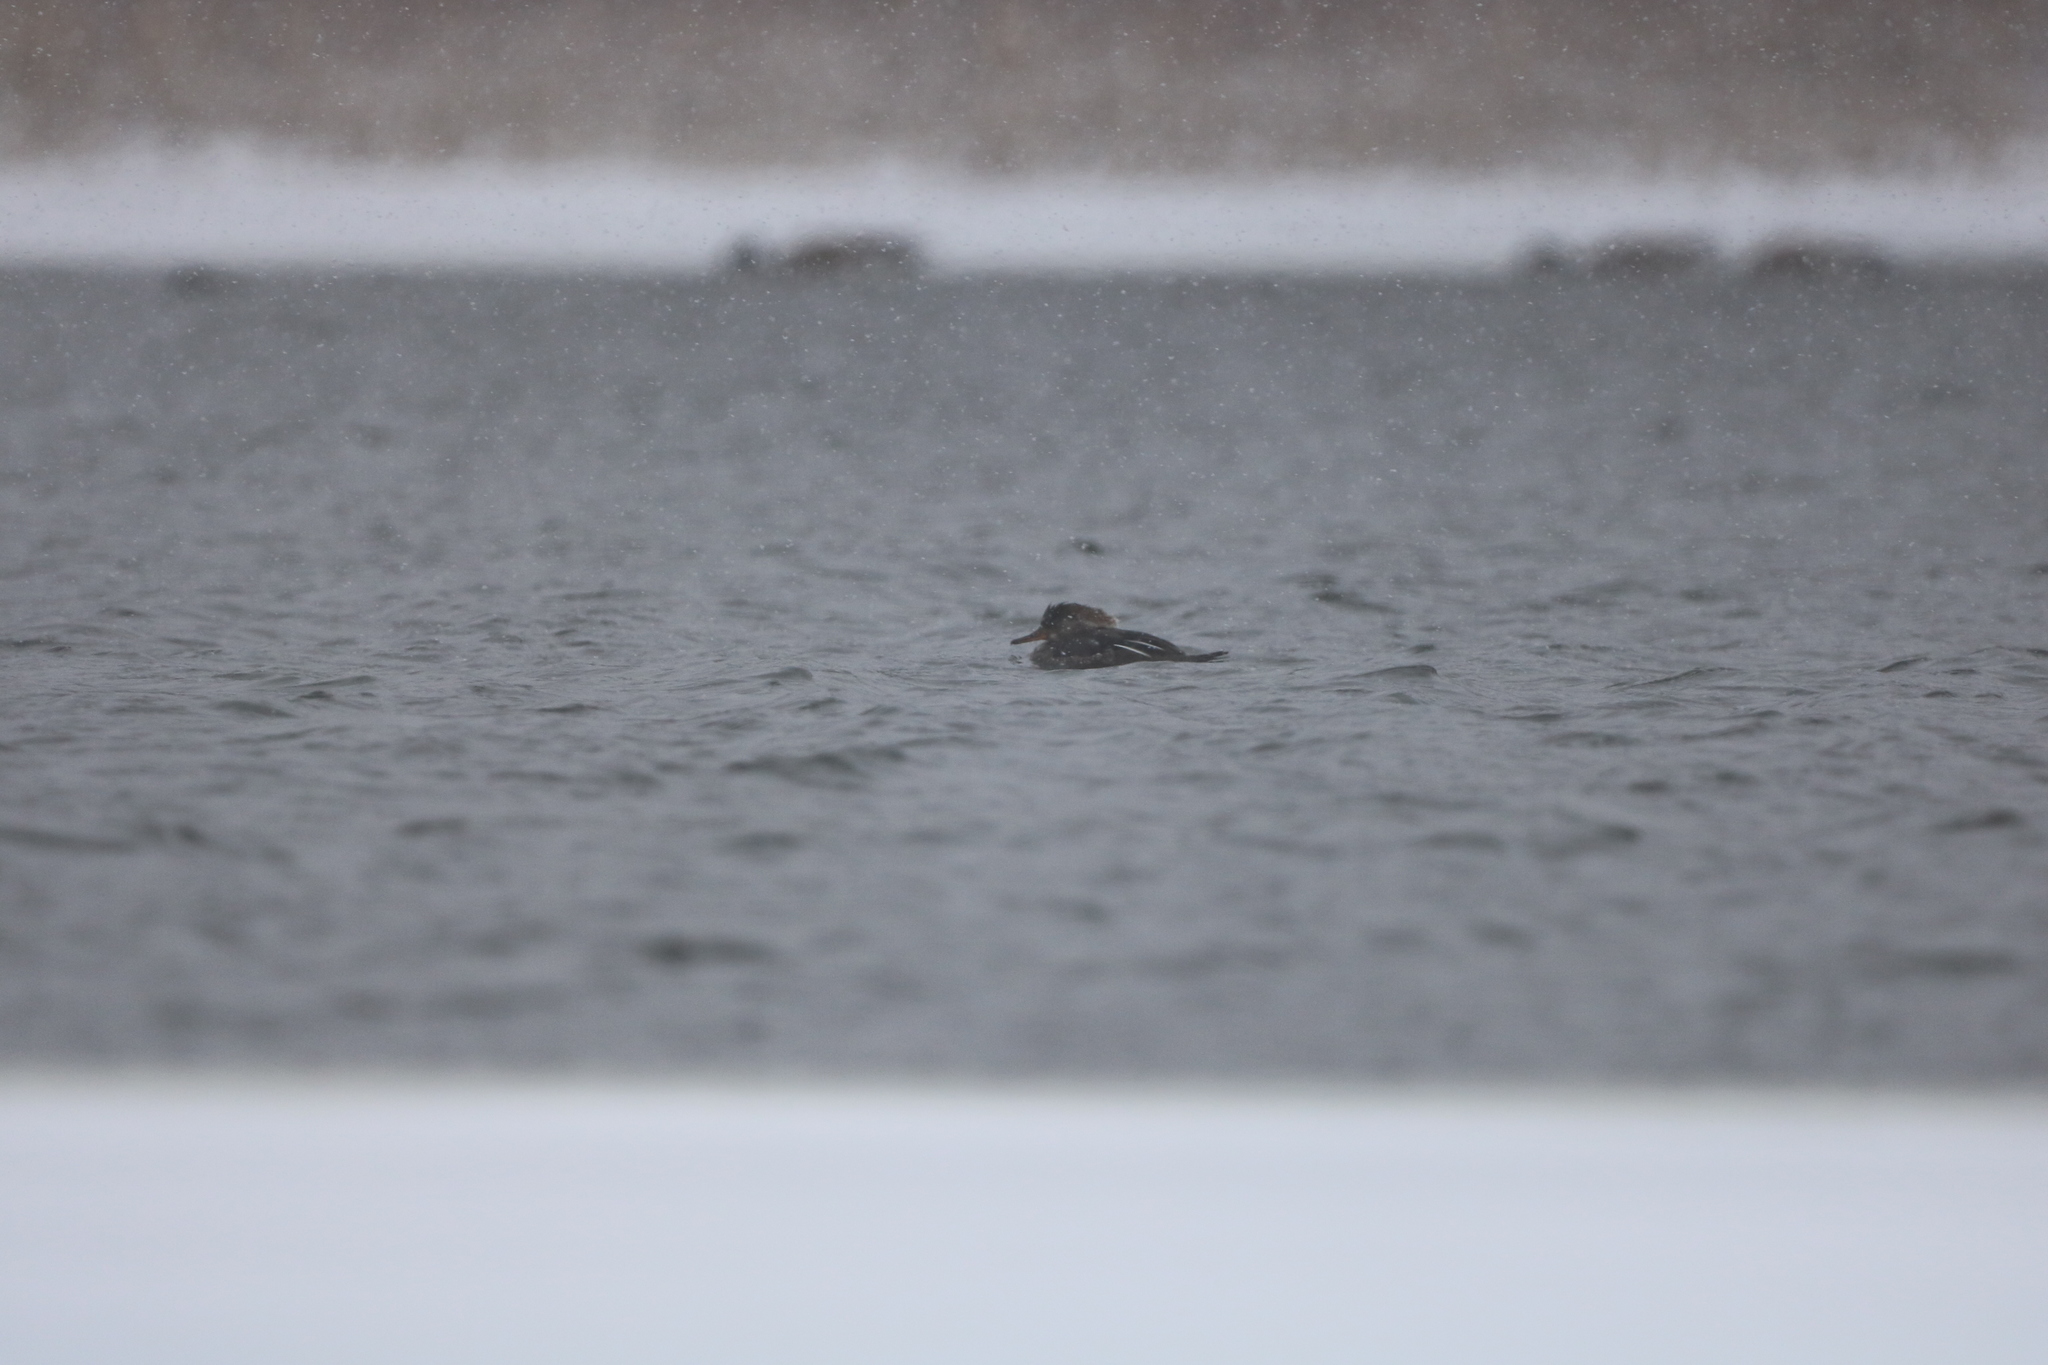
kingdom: Animalia
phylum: Chordata
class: Aves
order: Anseriformes
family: Anatidae
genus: Lophodytes
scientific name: Lophodytes cucullatus
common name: Hooded merganser
